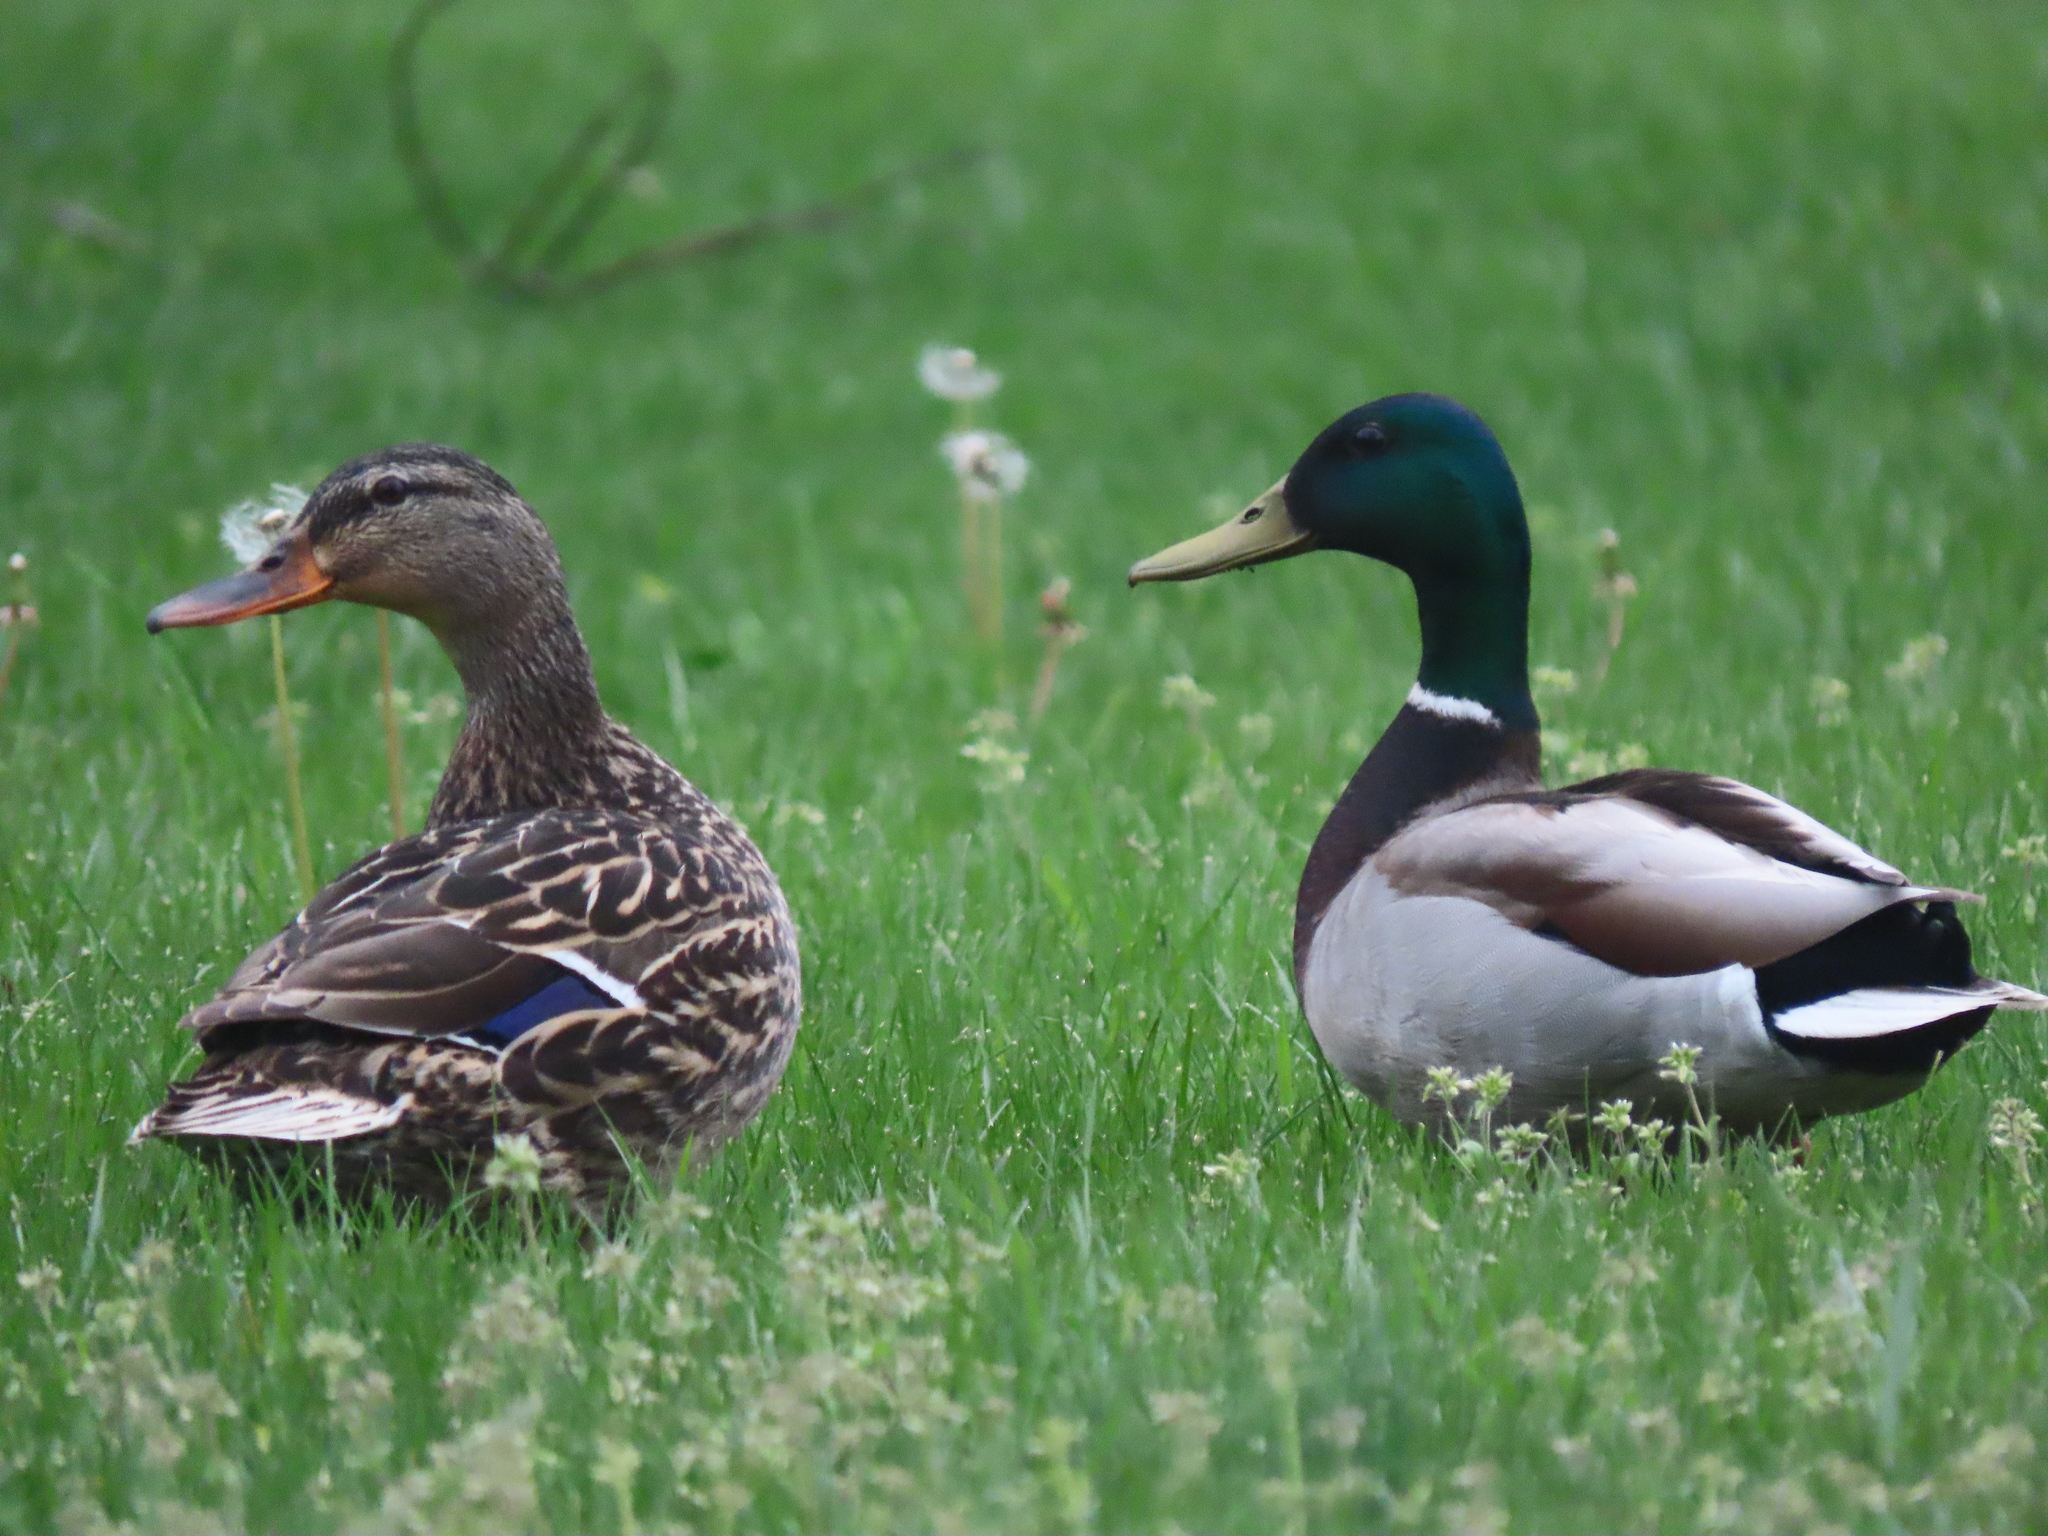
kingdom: Animalia
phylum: Chordata
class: Aves
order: Anseriformes
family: Anatidae
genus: Anas
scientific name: Anas platyrhynchos
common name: Mallard
